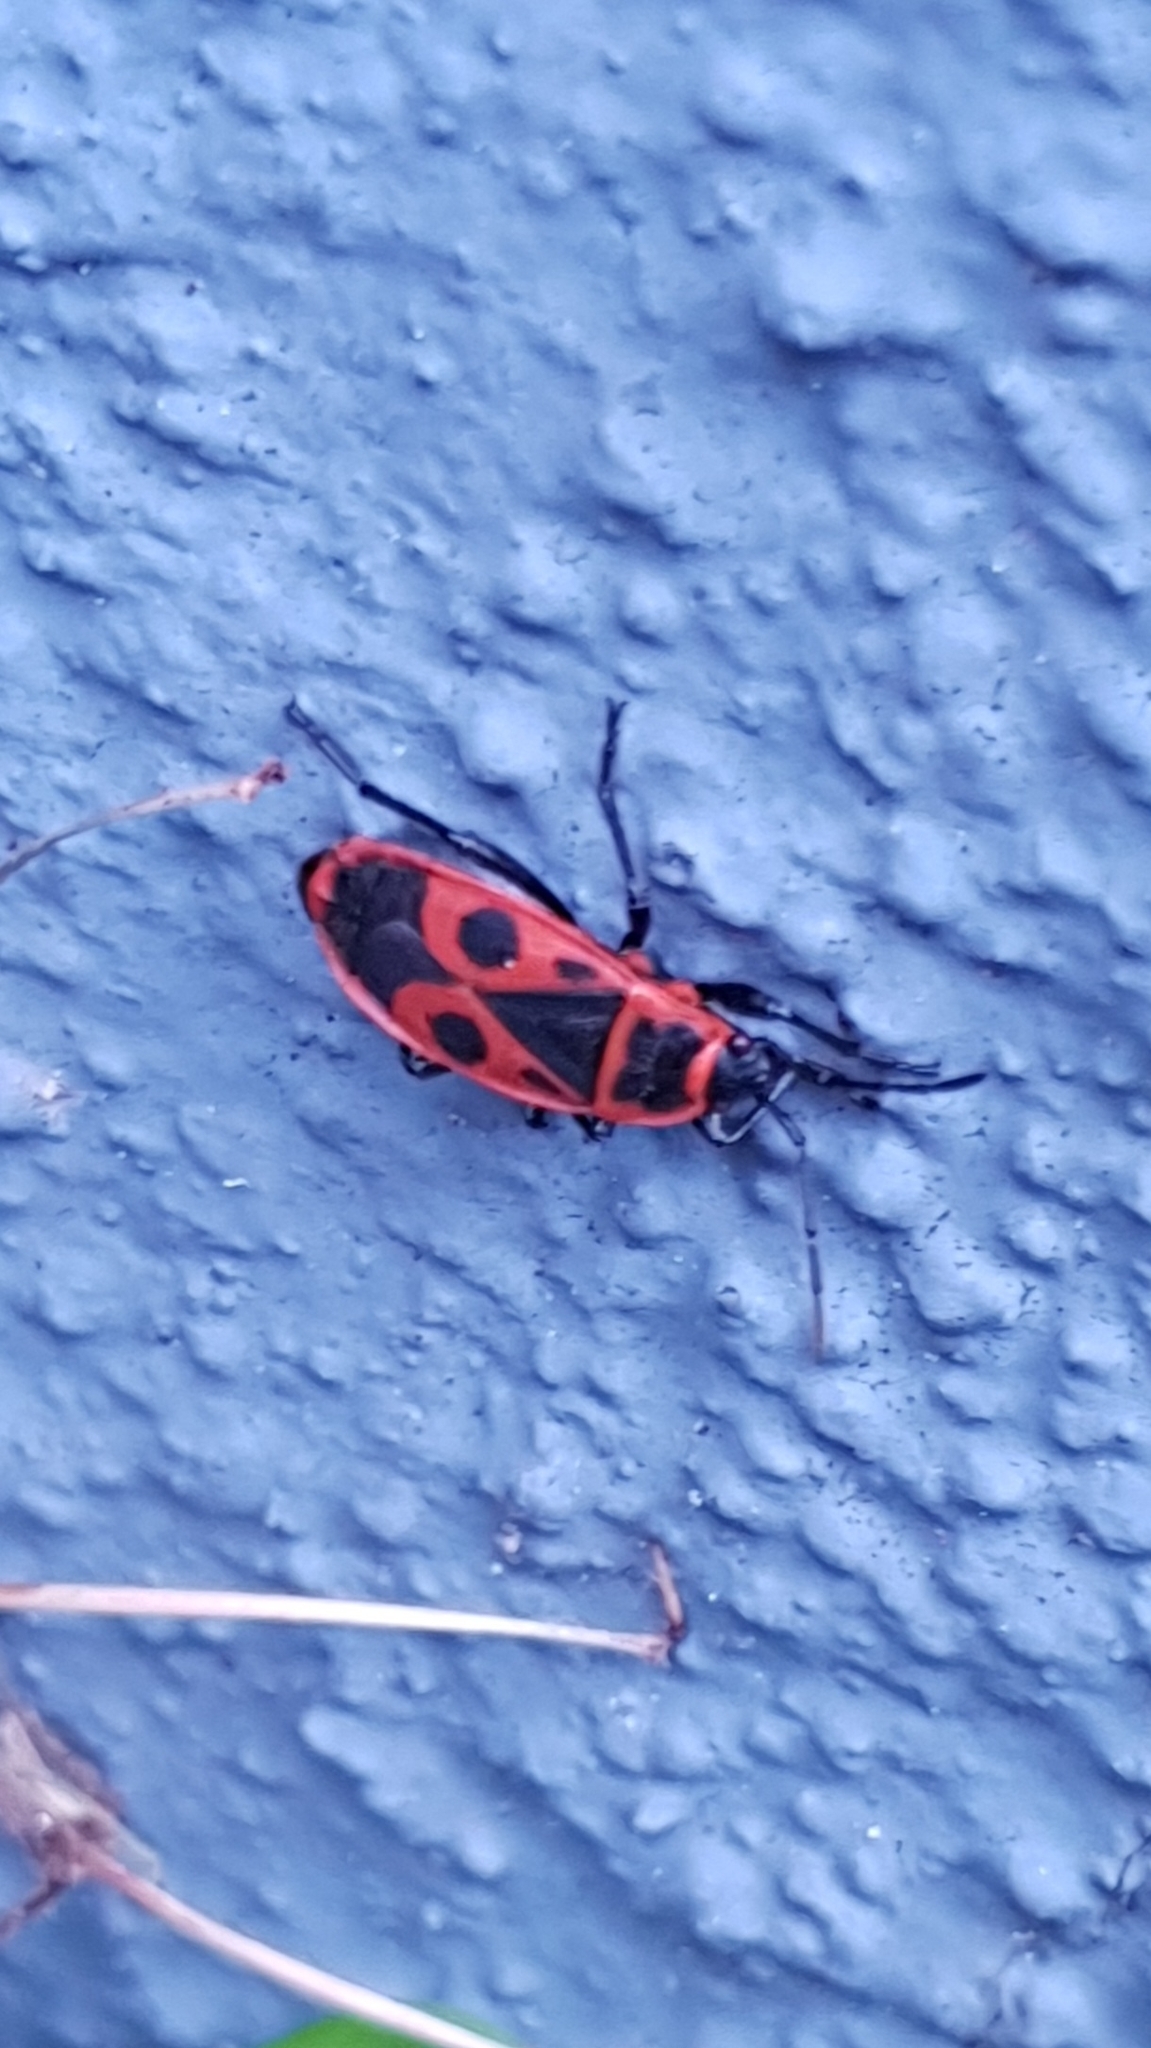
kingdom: Animalia
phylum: Arthropoda
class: Insecta
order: Hemiptera
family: Pyrrhocoridae
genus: Pyrrhocoris
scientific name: Pyrrhocoris apterus
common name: Firebug
